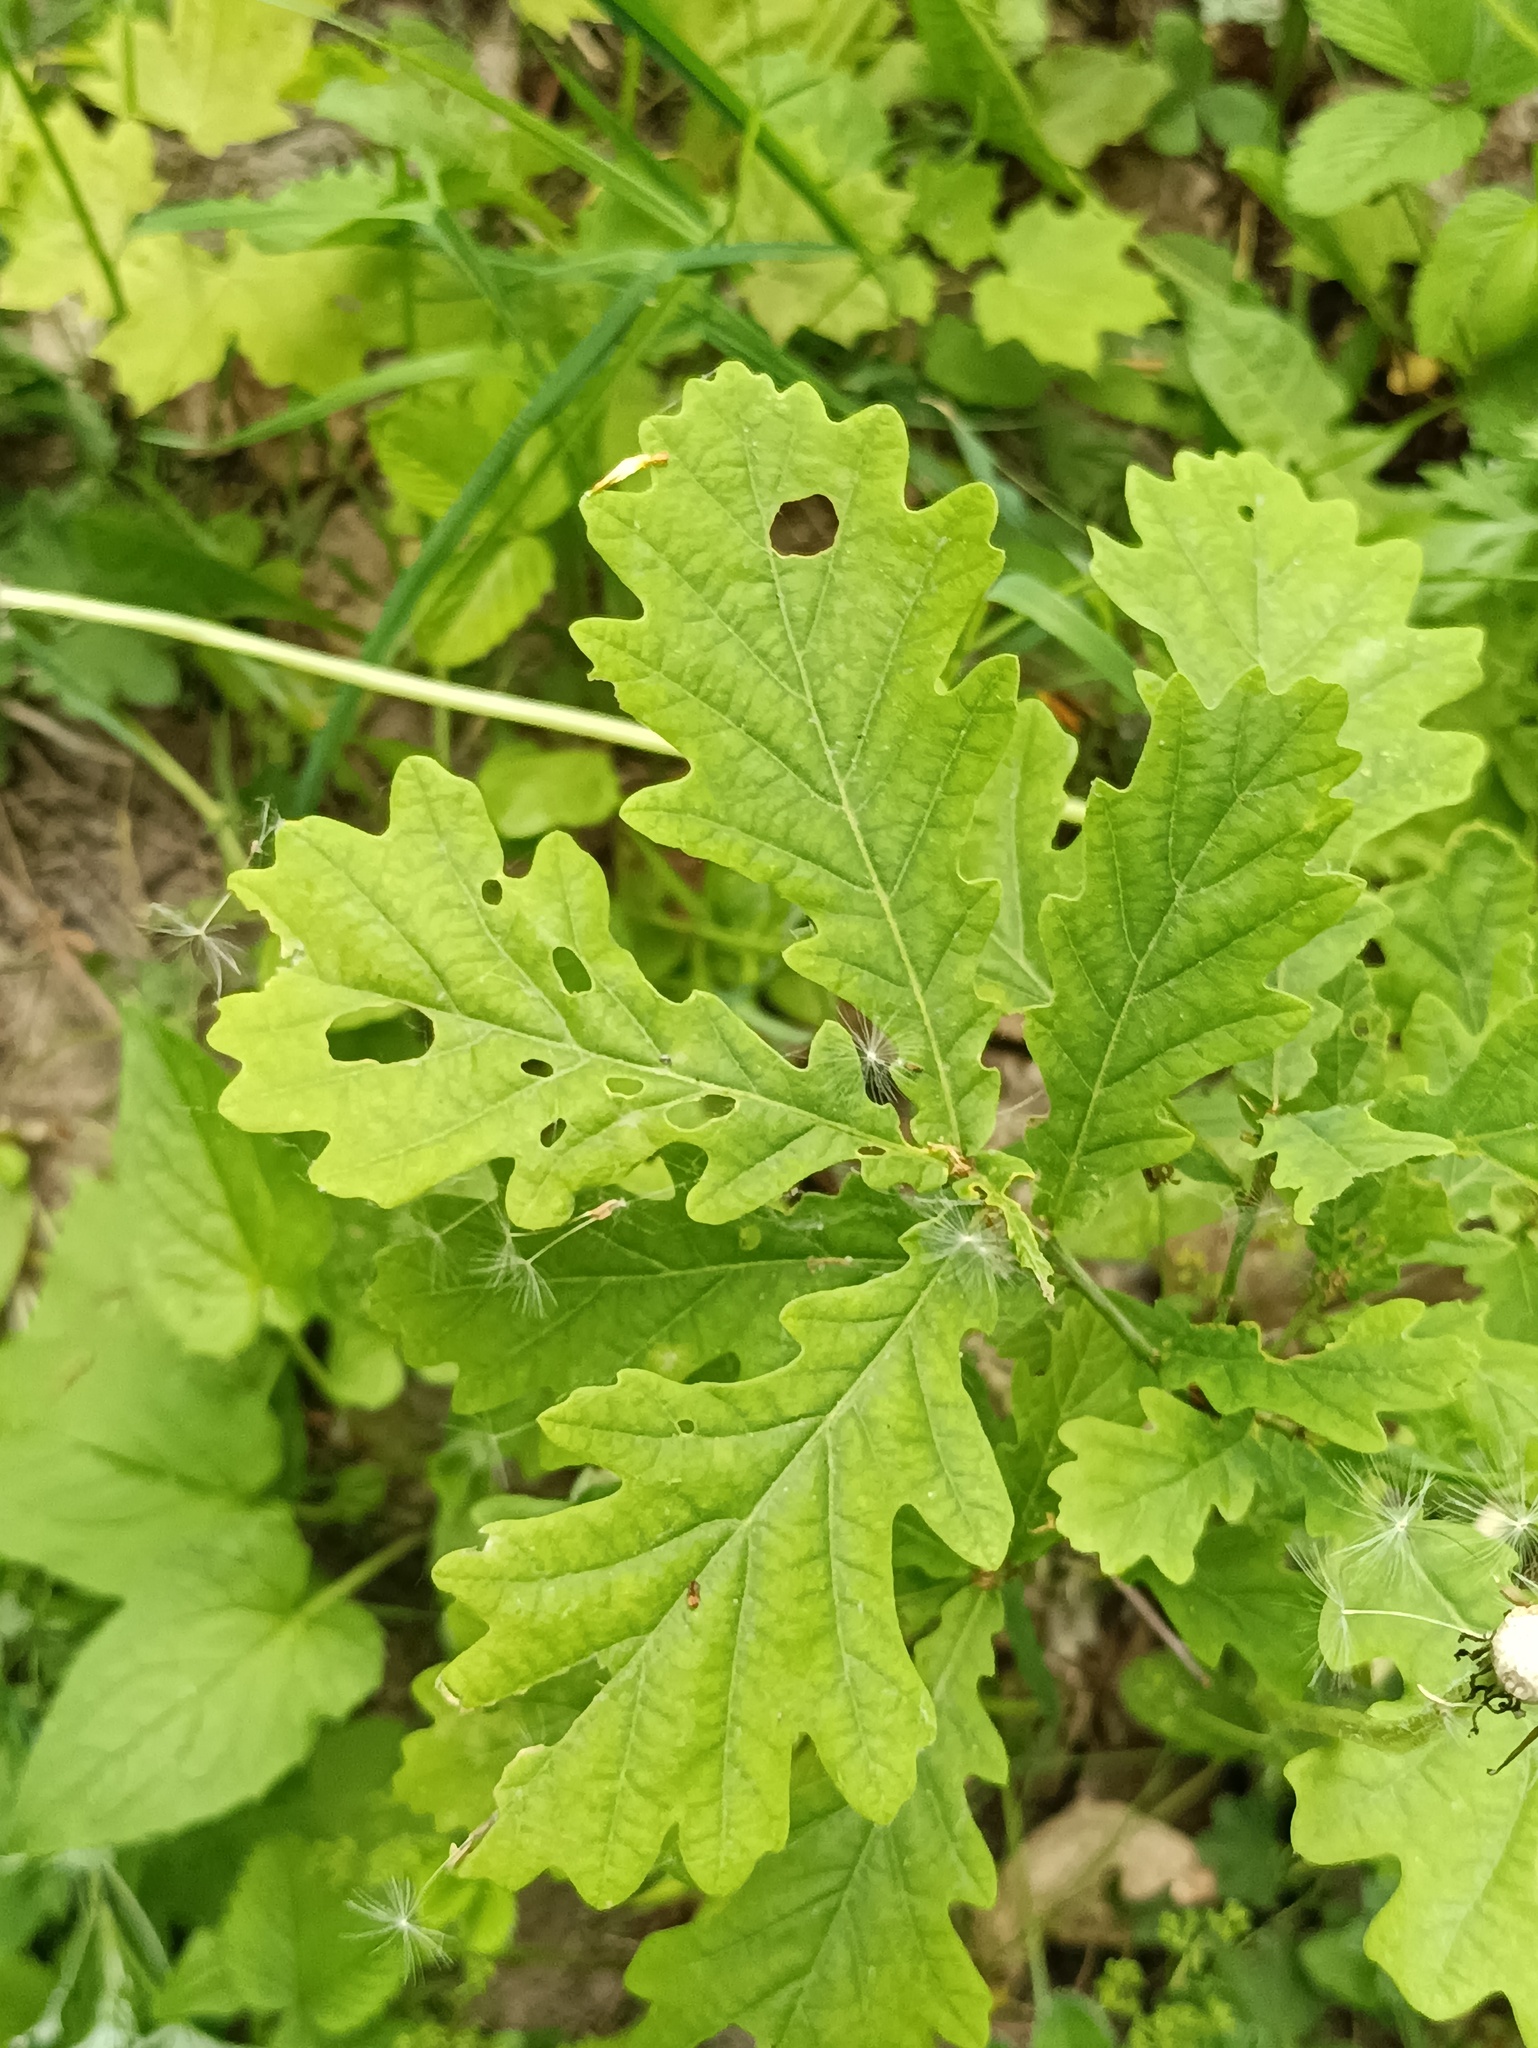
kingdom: Plantae
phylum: Tracheophyta
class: Magnoliopsida
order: Fagales
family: Fagaceae
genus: Quercus
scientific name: Quercus robur
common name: Pedunculate oak
